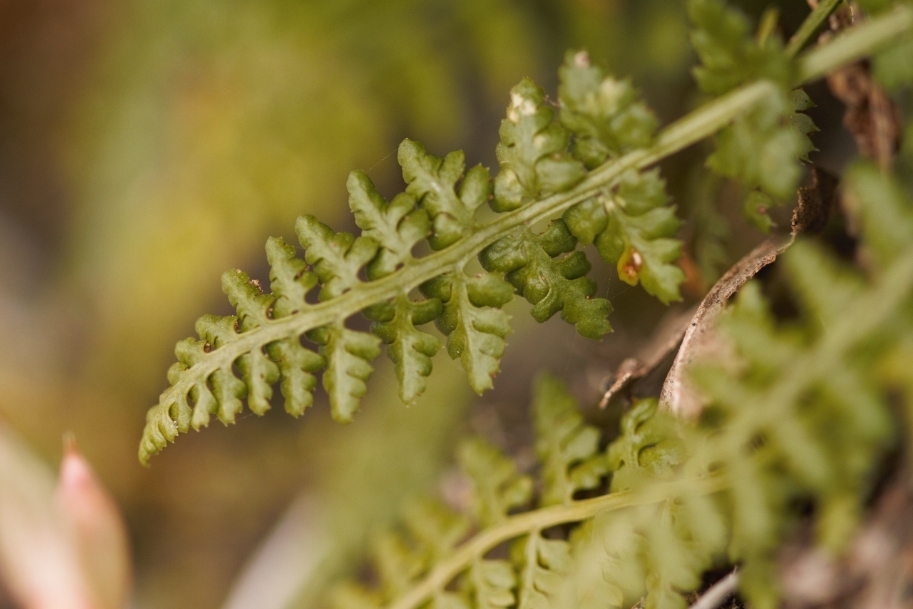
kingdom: Plantae
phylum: Tracheophyta
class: Polypodiopsida
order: Polypodiales
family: Aspleniaceae
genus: Asplenium
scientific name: Asplenium obovatum
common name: Lanceolate spleenwort
